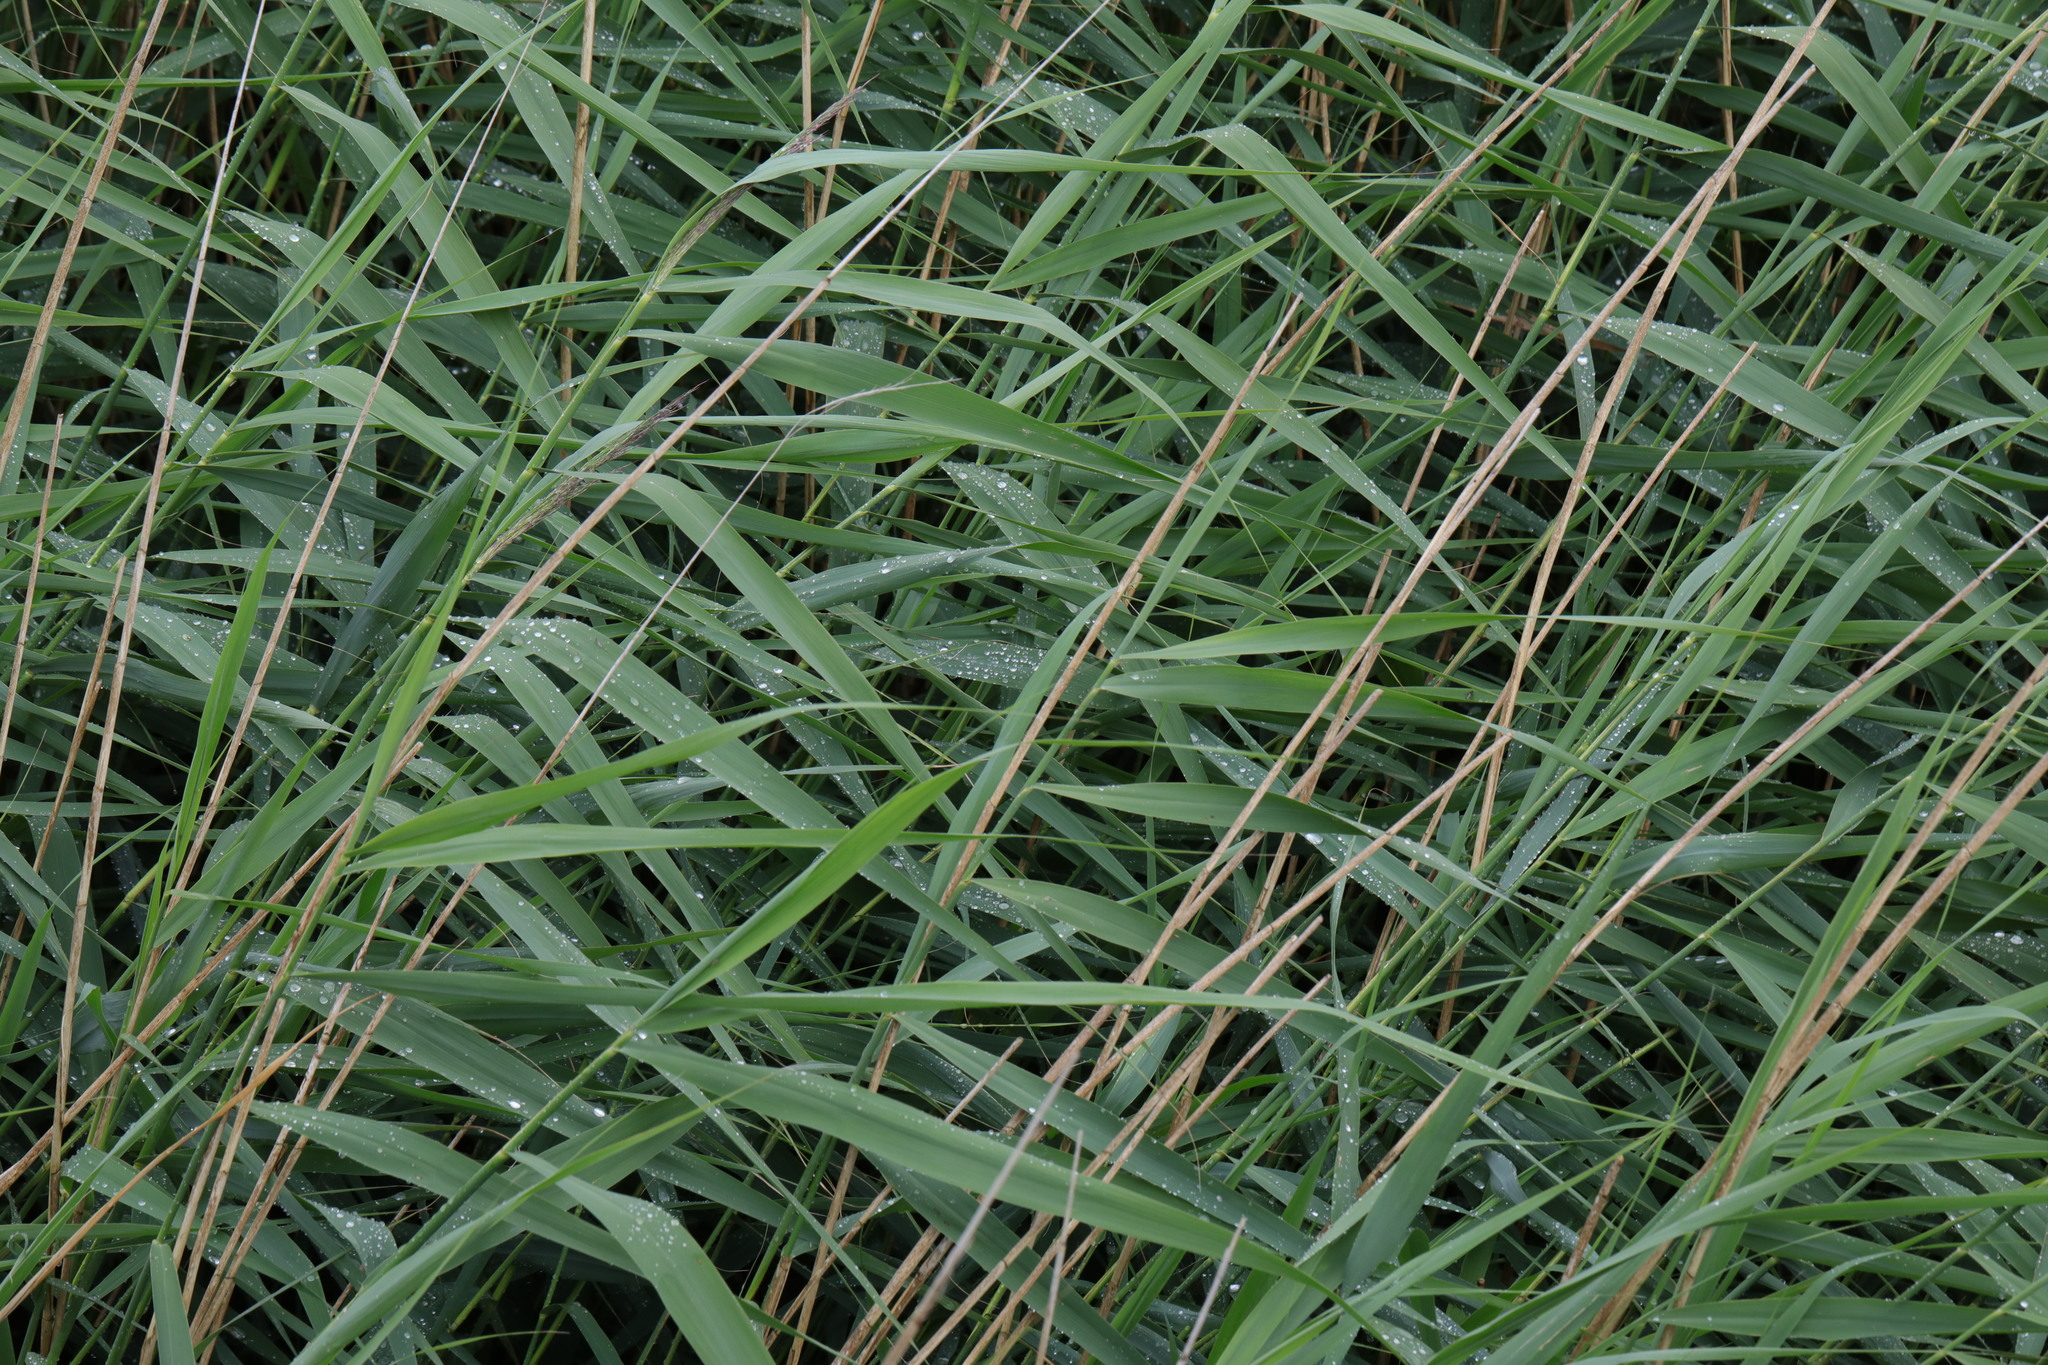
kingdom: Plantae
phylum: Tracheophyta
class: Liliopsida
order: Poales
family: Poaceae
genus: Phragmites
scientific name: Phragmites australis
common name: Common reed
